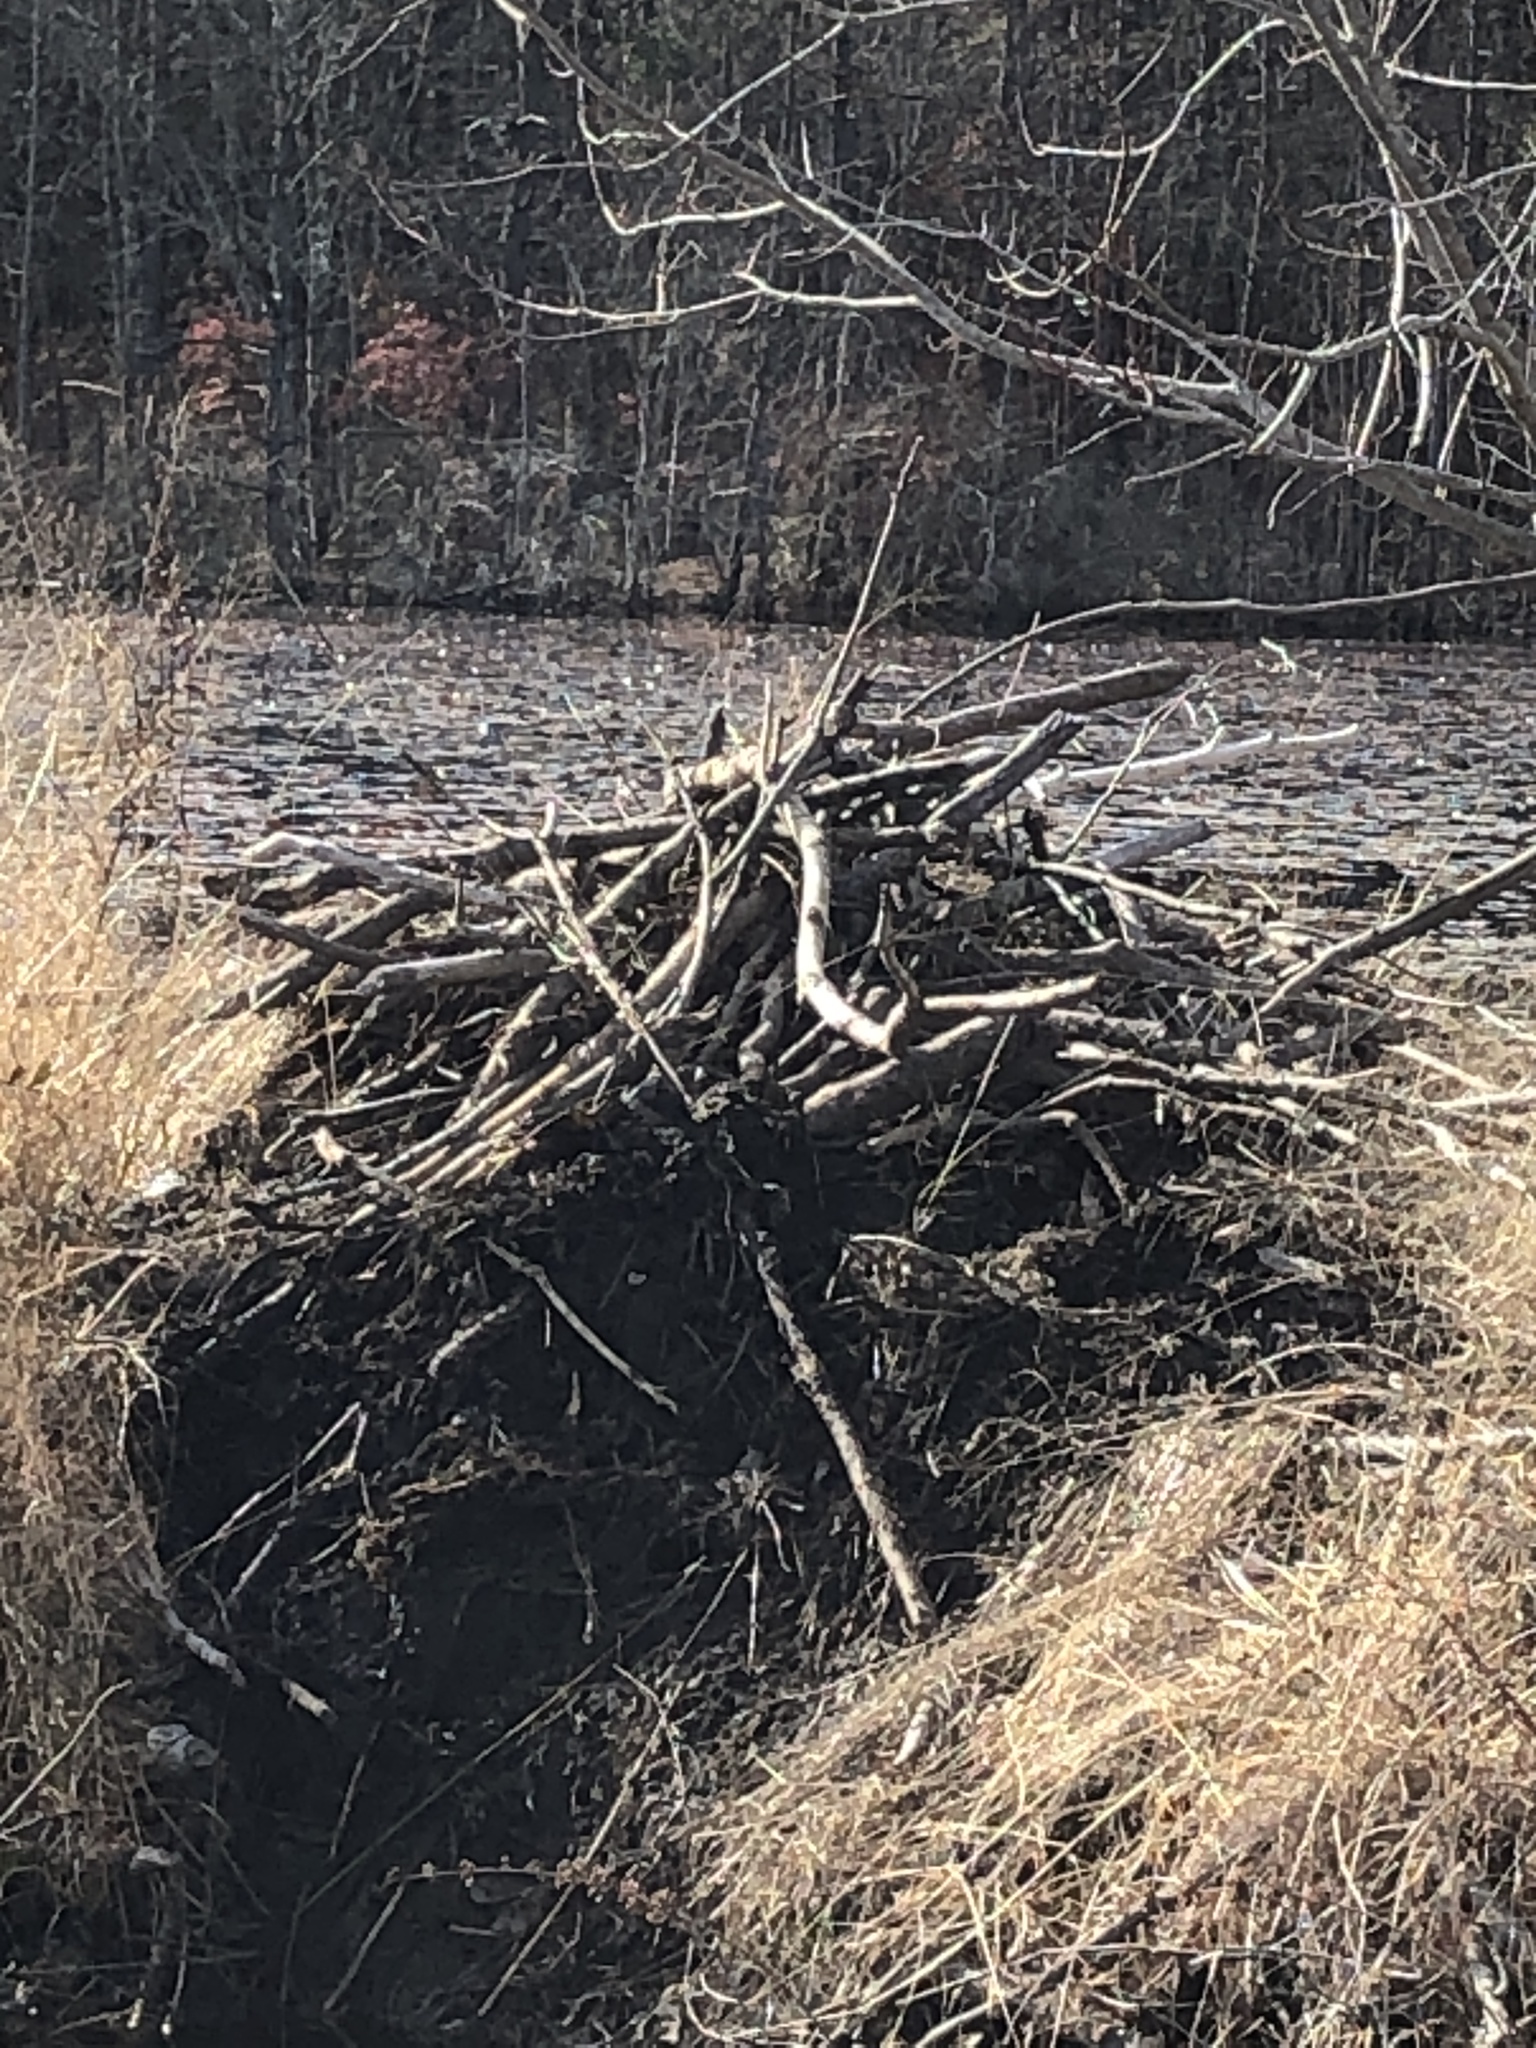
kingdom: Animalia
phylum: Chordata
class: Mammalia
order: Rodentia
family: Castoridae
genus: Castor
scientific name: Castor canadensis
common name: American beaver
